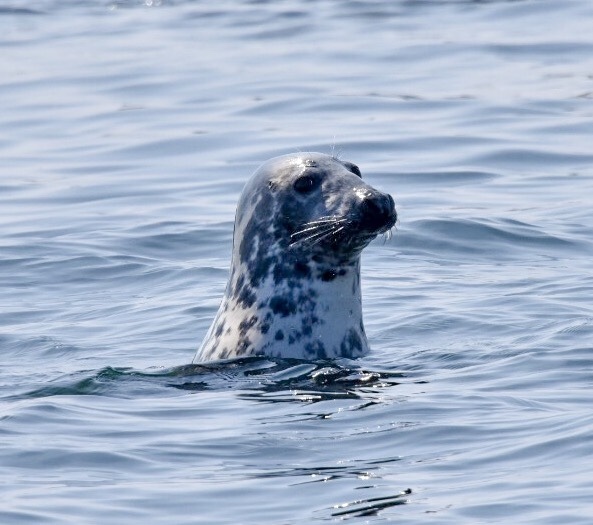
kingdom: Animalia
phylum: Chordata
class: Mammalia
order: Carnivora
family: Phocidae
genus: Halichoerus
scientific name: Halichoerus grypus
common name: Grey seal
